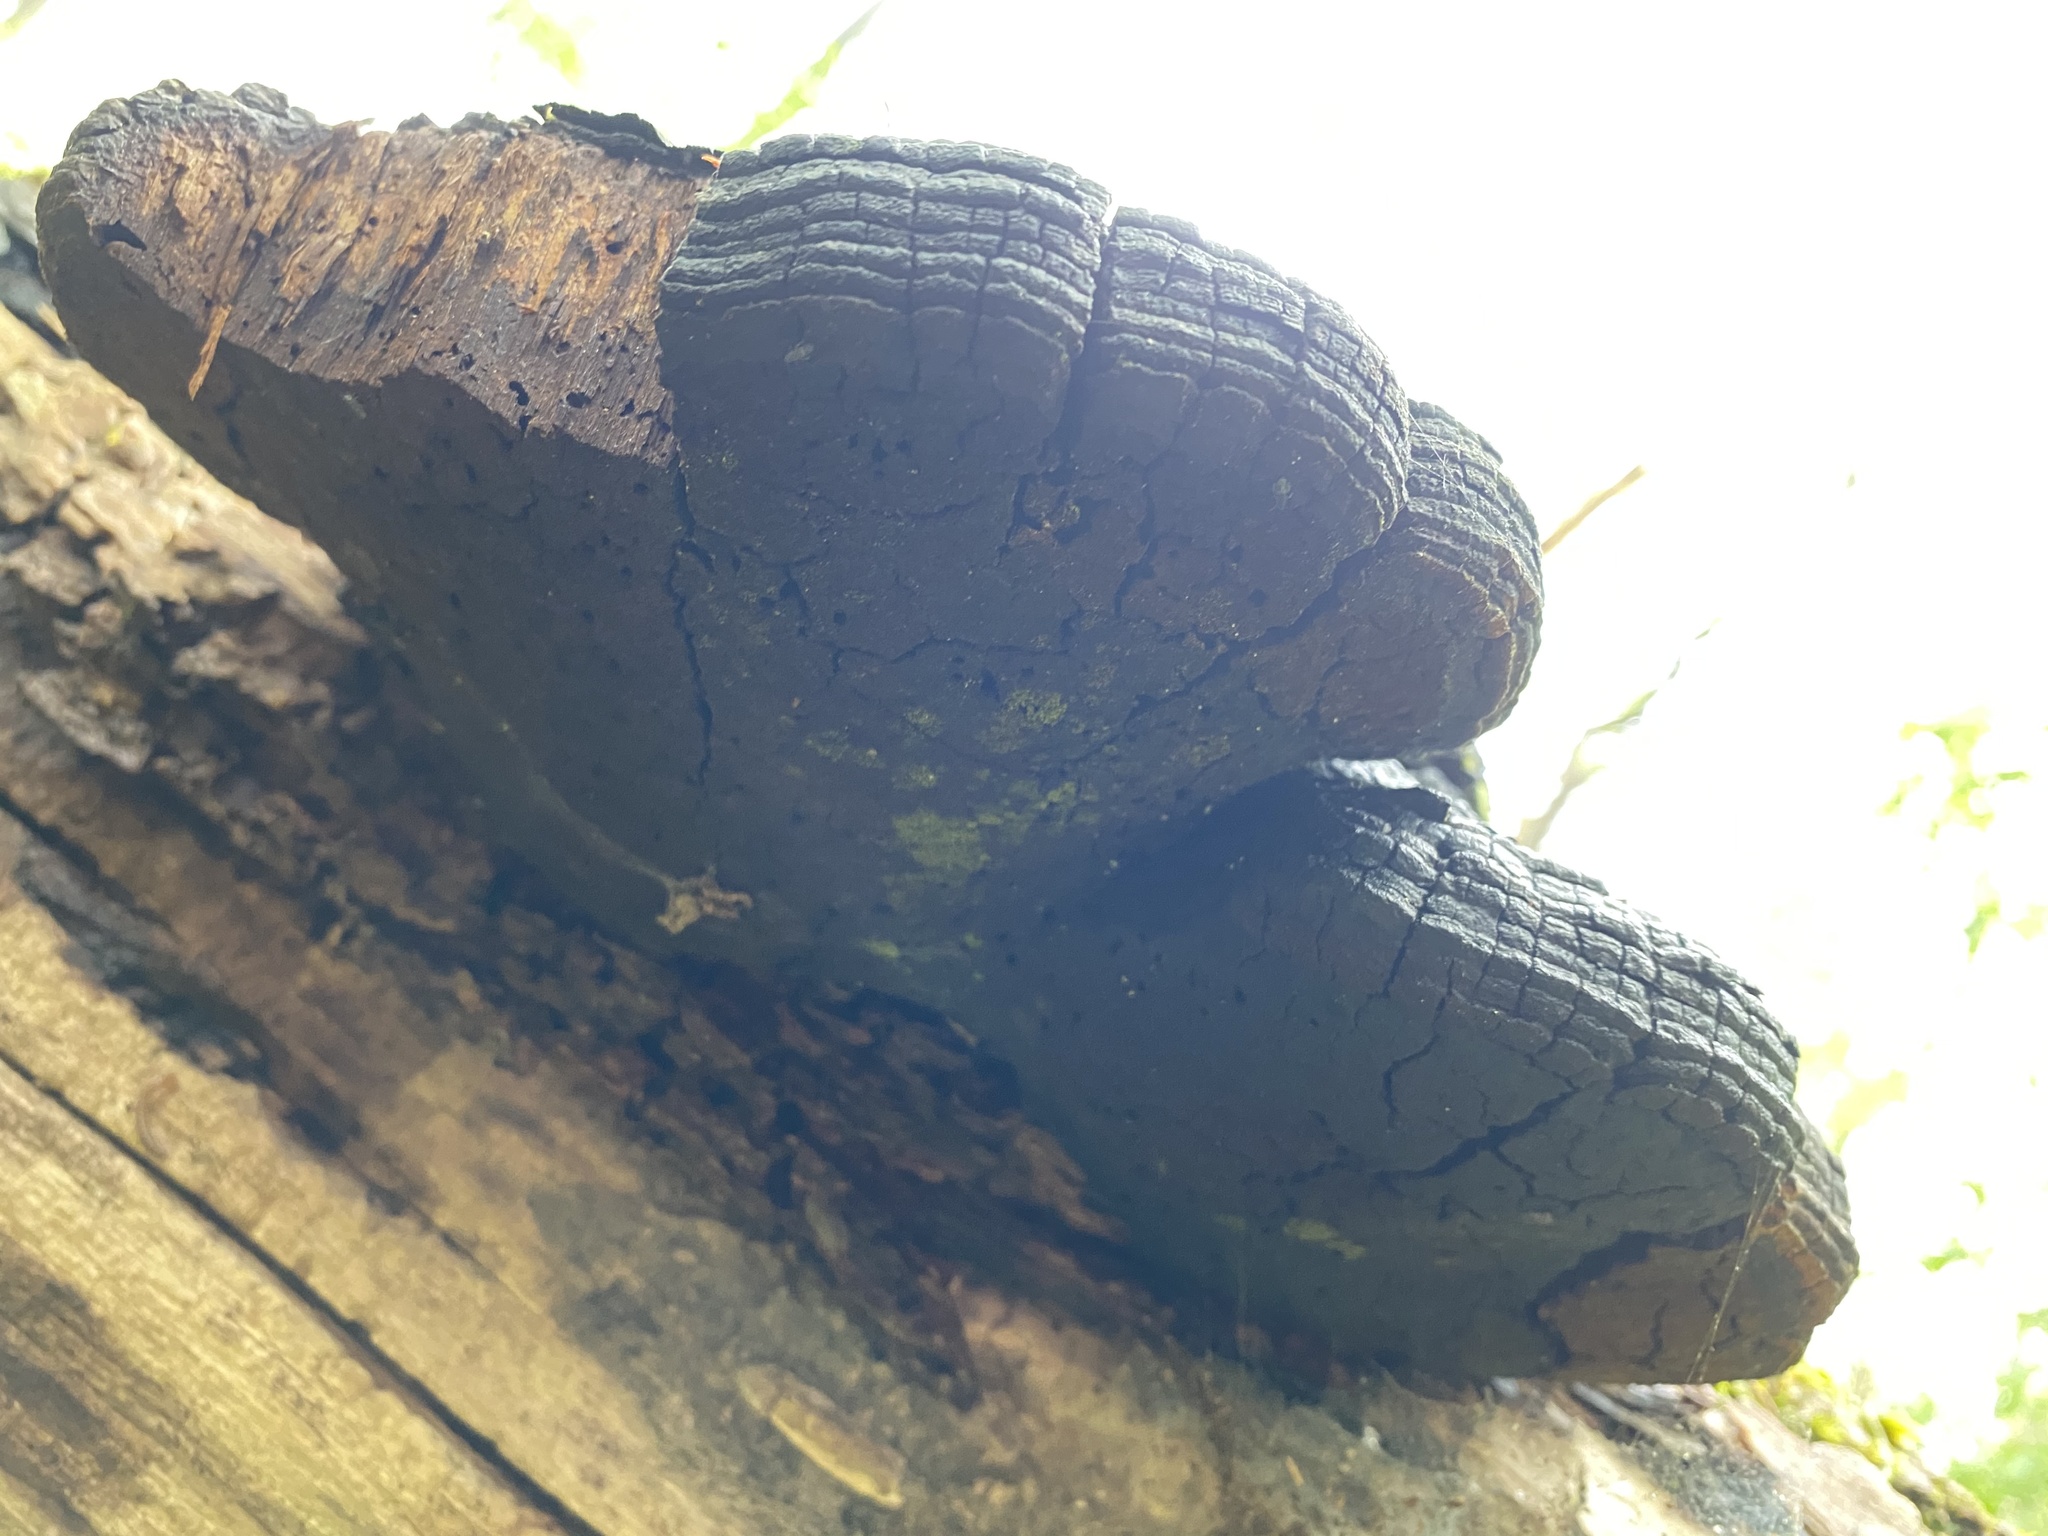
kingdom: Fungi
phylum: Basidiomycota
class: Agaricomycetes
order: Hymenochaetales
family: Hymenochaetaceae
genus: Phellinus
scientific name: Phellinus robiniae
